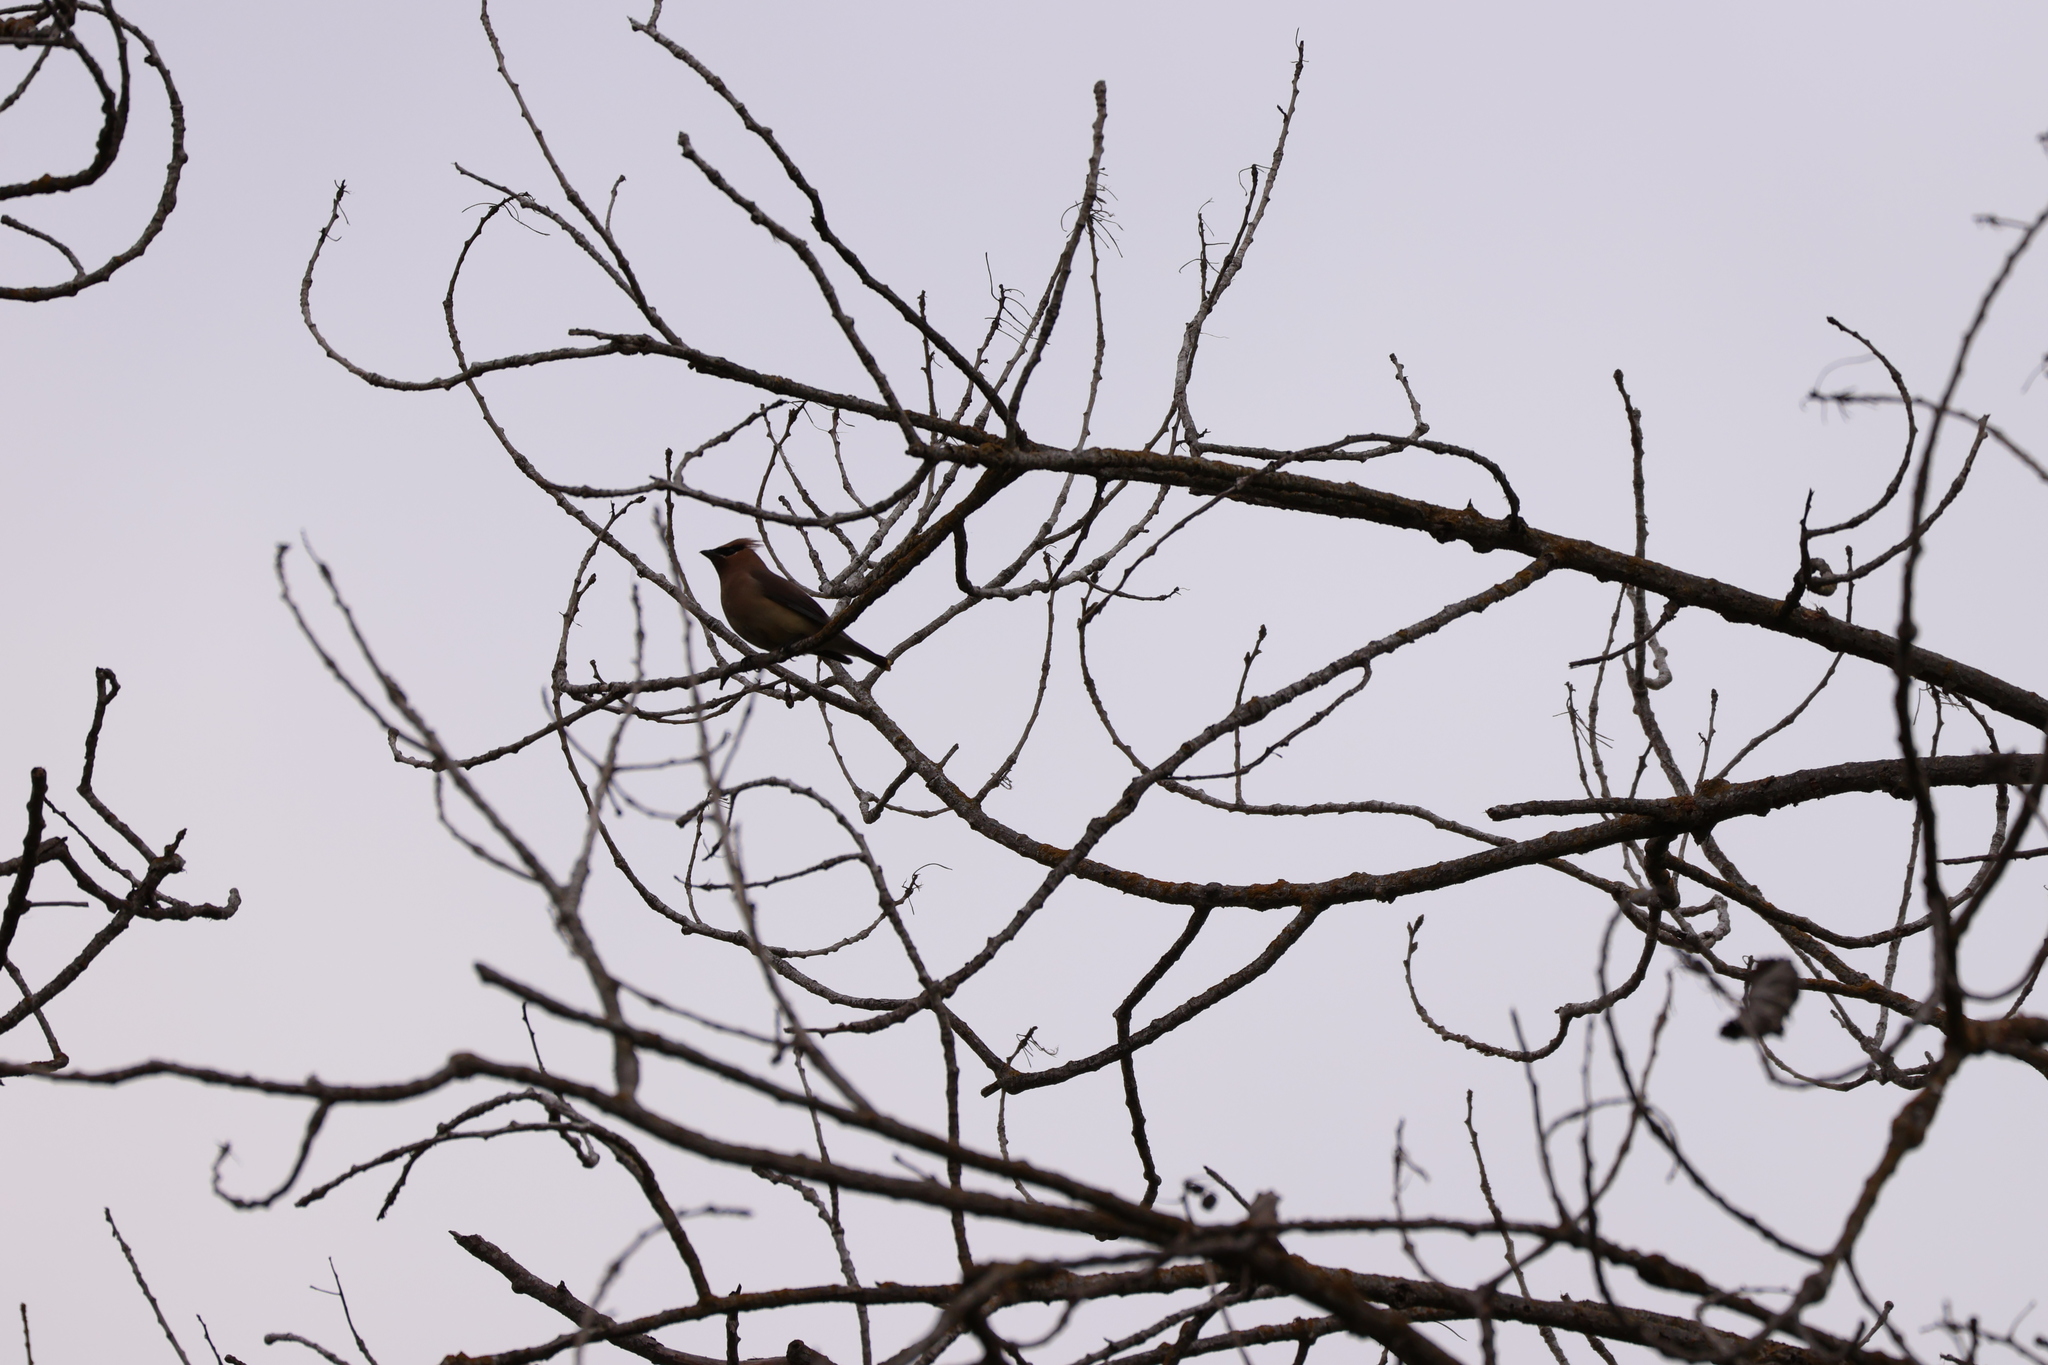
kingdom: Animalia
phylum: Chordata
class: Aves
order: Passeriformes
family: Bombycillidae
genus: Bombycilla
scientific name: Bombycilla cedrorum
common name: Cedar waxwing
